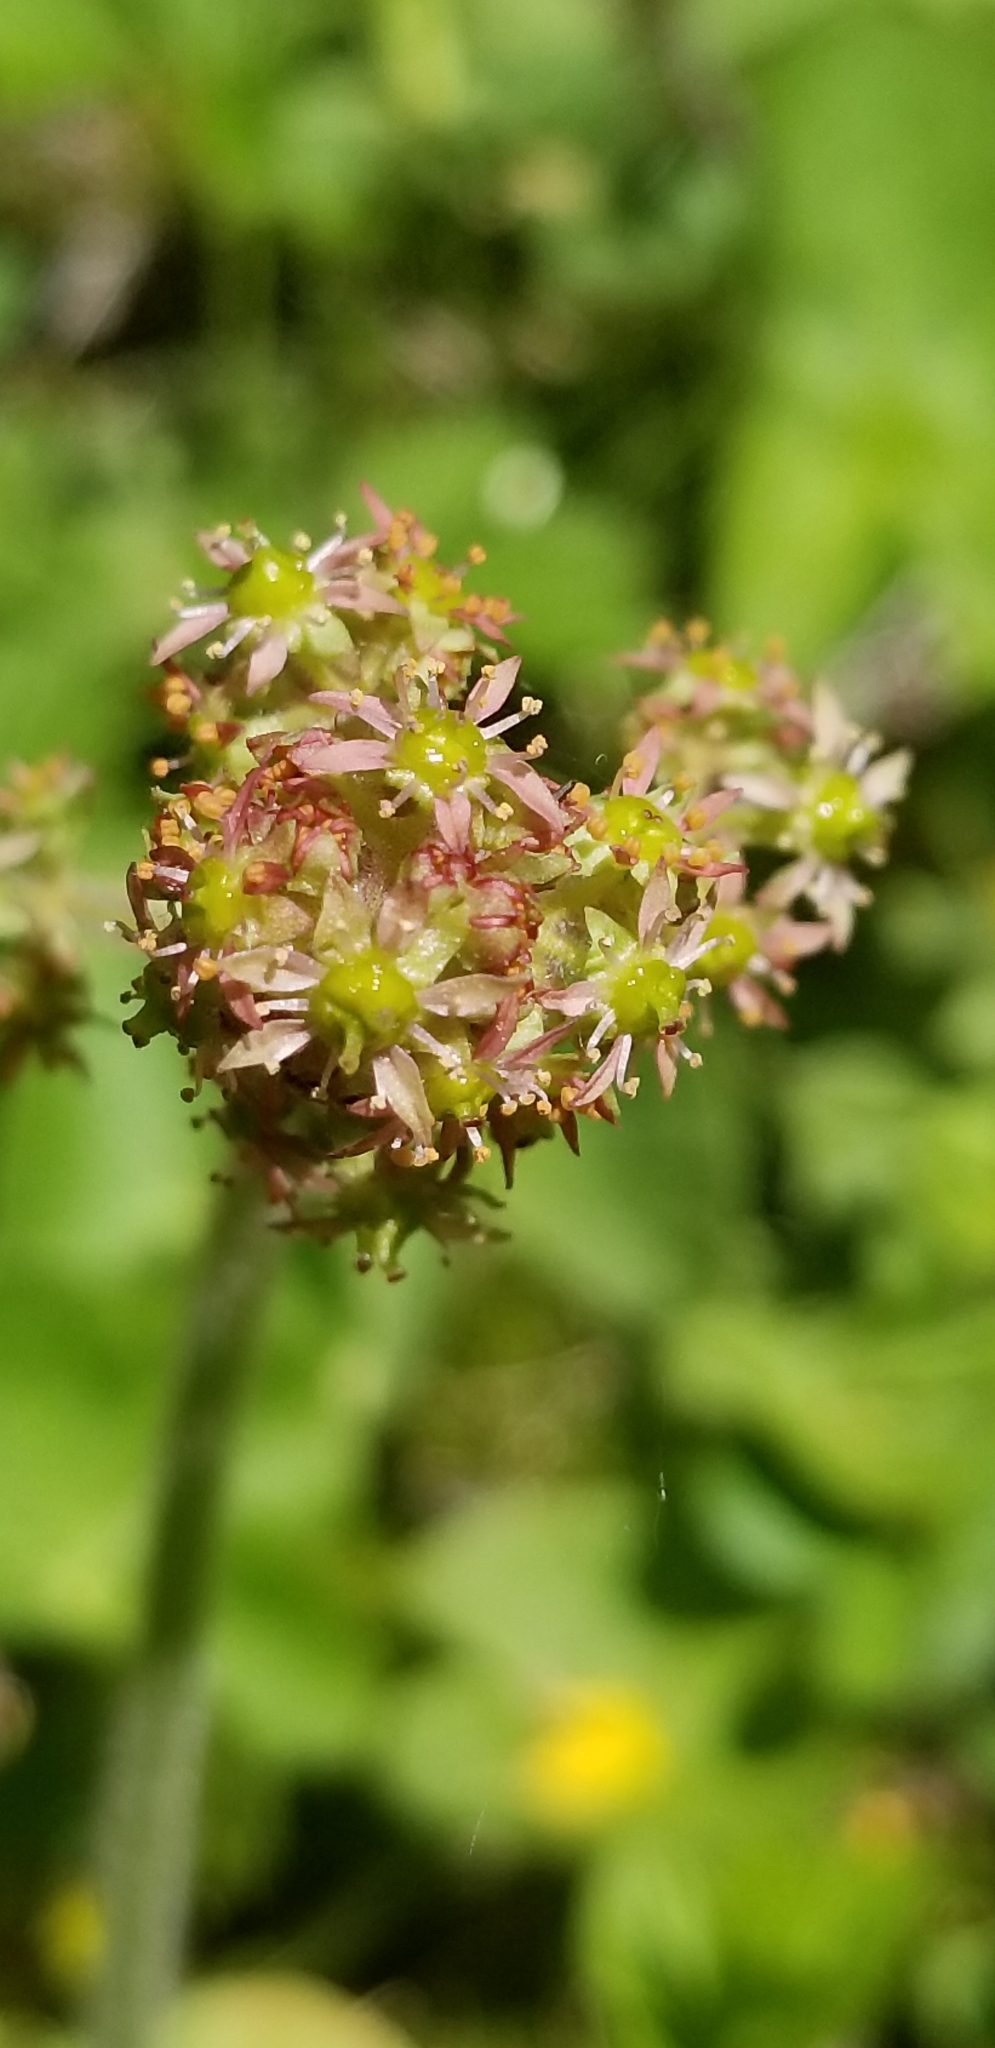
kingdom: Plantae
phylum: Tracheophyta
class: Magnoliopsida
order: Saxifragales
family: Saxifragaceae
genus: Micranthes
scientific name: Micranthes pensylvanica
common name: Marsh saxifrage
